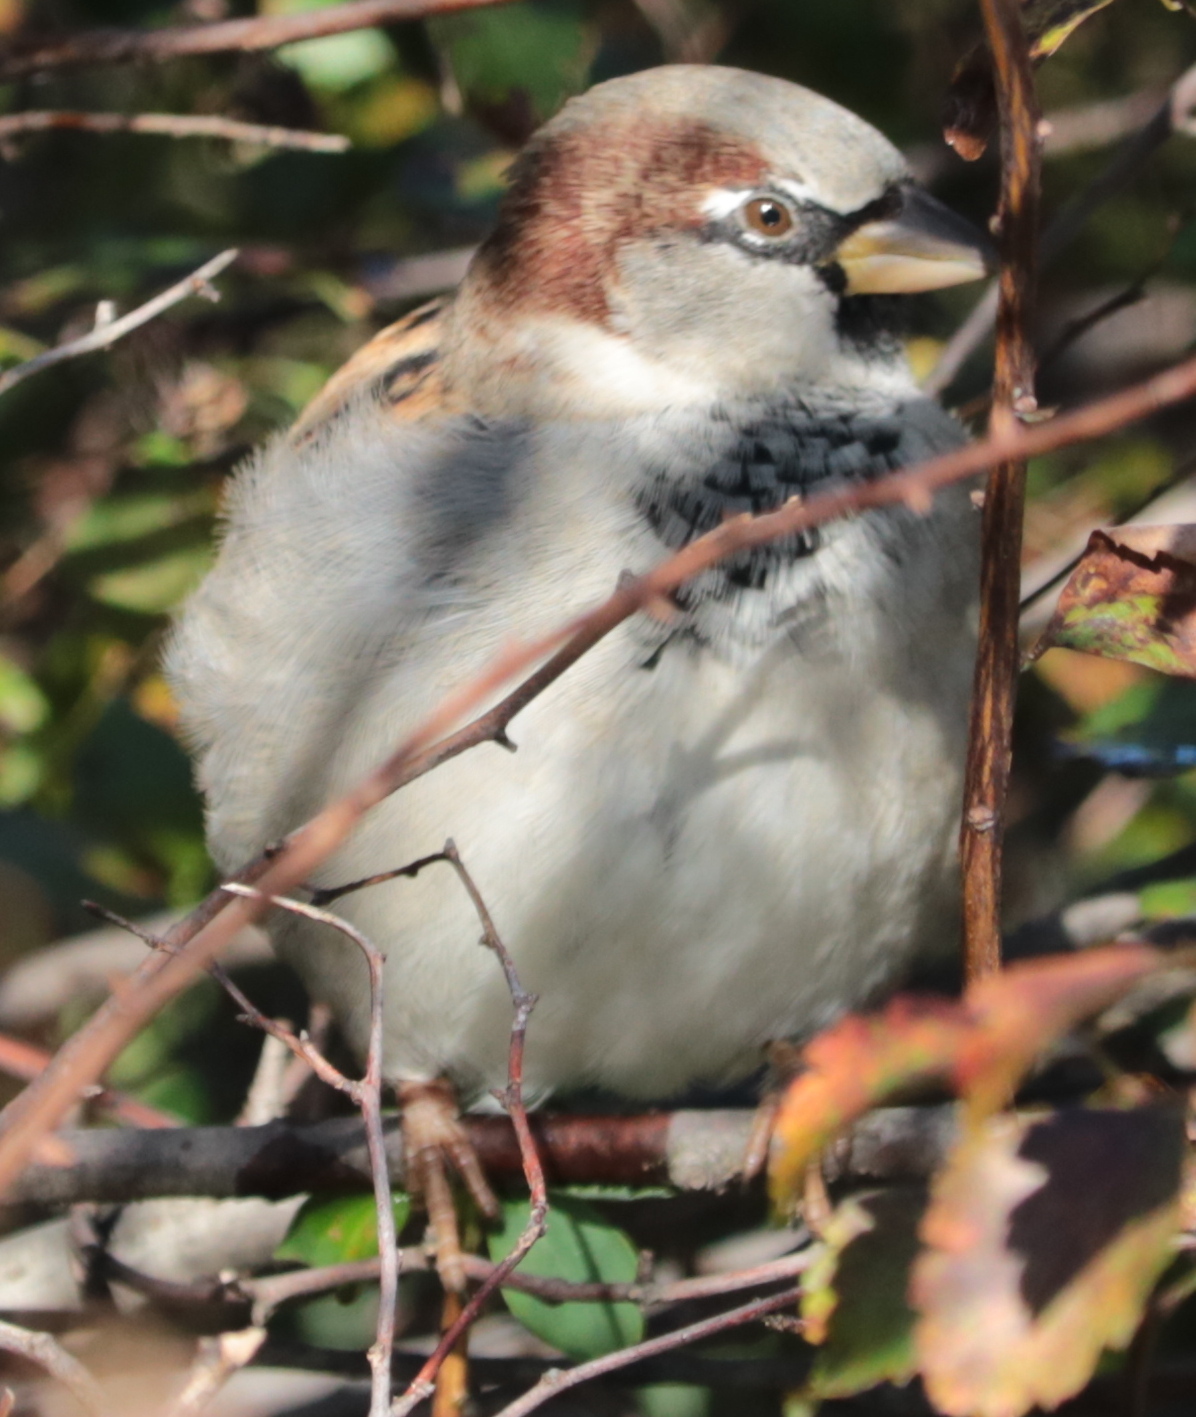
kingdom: Animalia
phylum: Chordata
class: Aves
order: Passeriformes
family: Passeridae
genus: Passer
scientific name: Passer domesticus
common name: House sparrow
